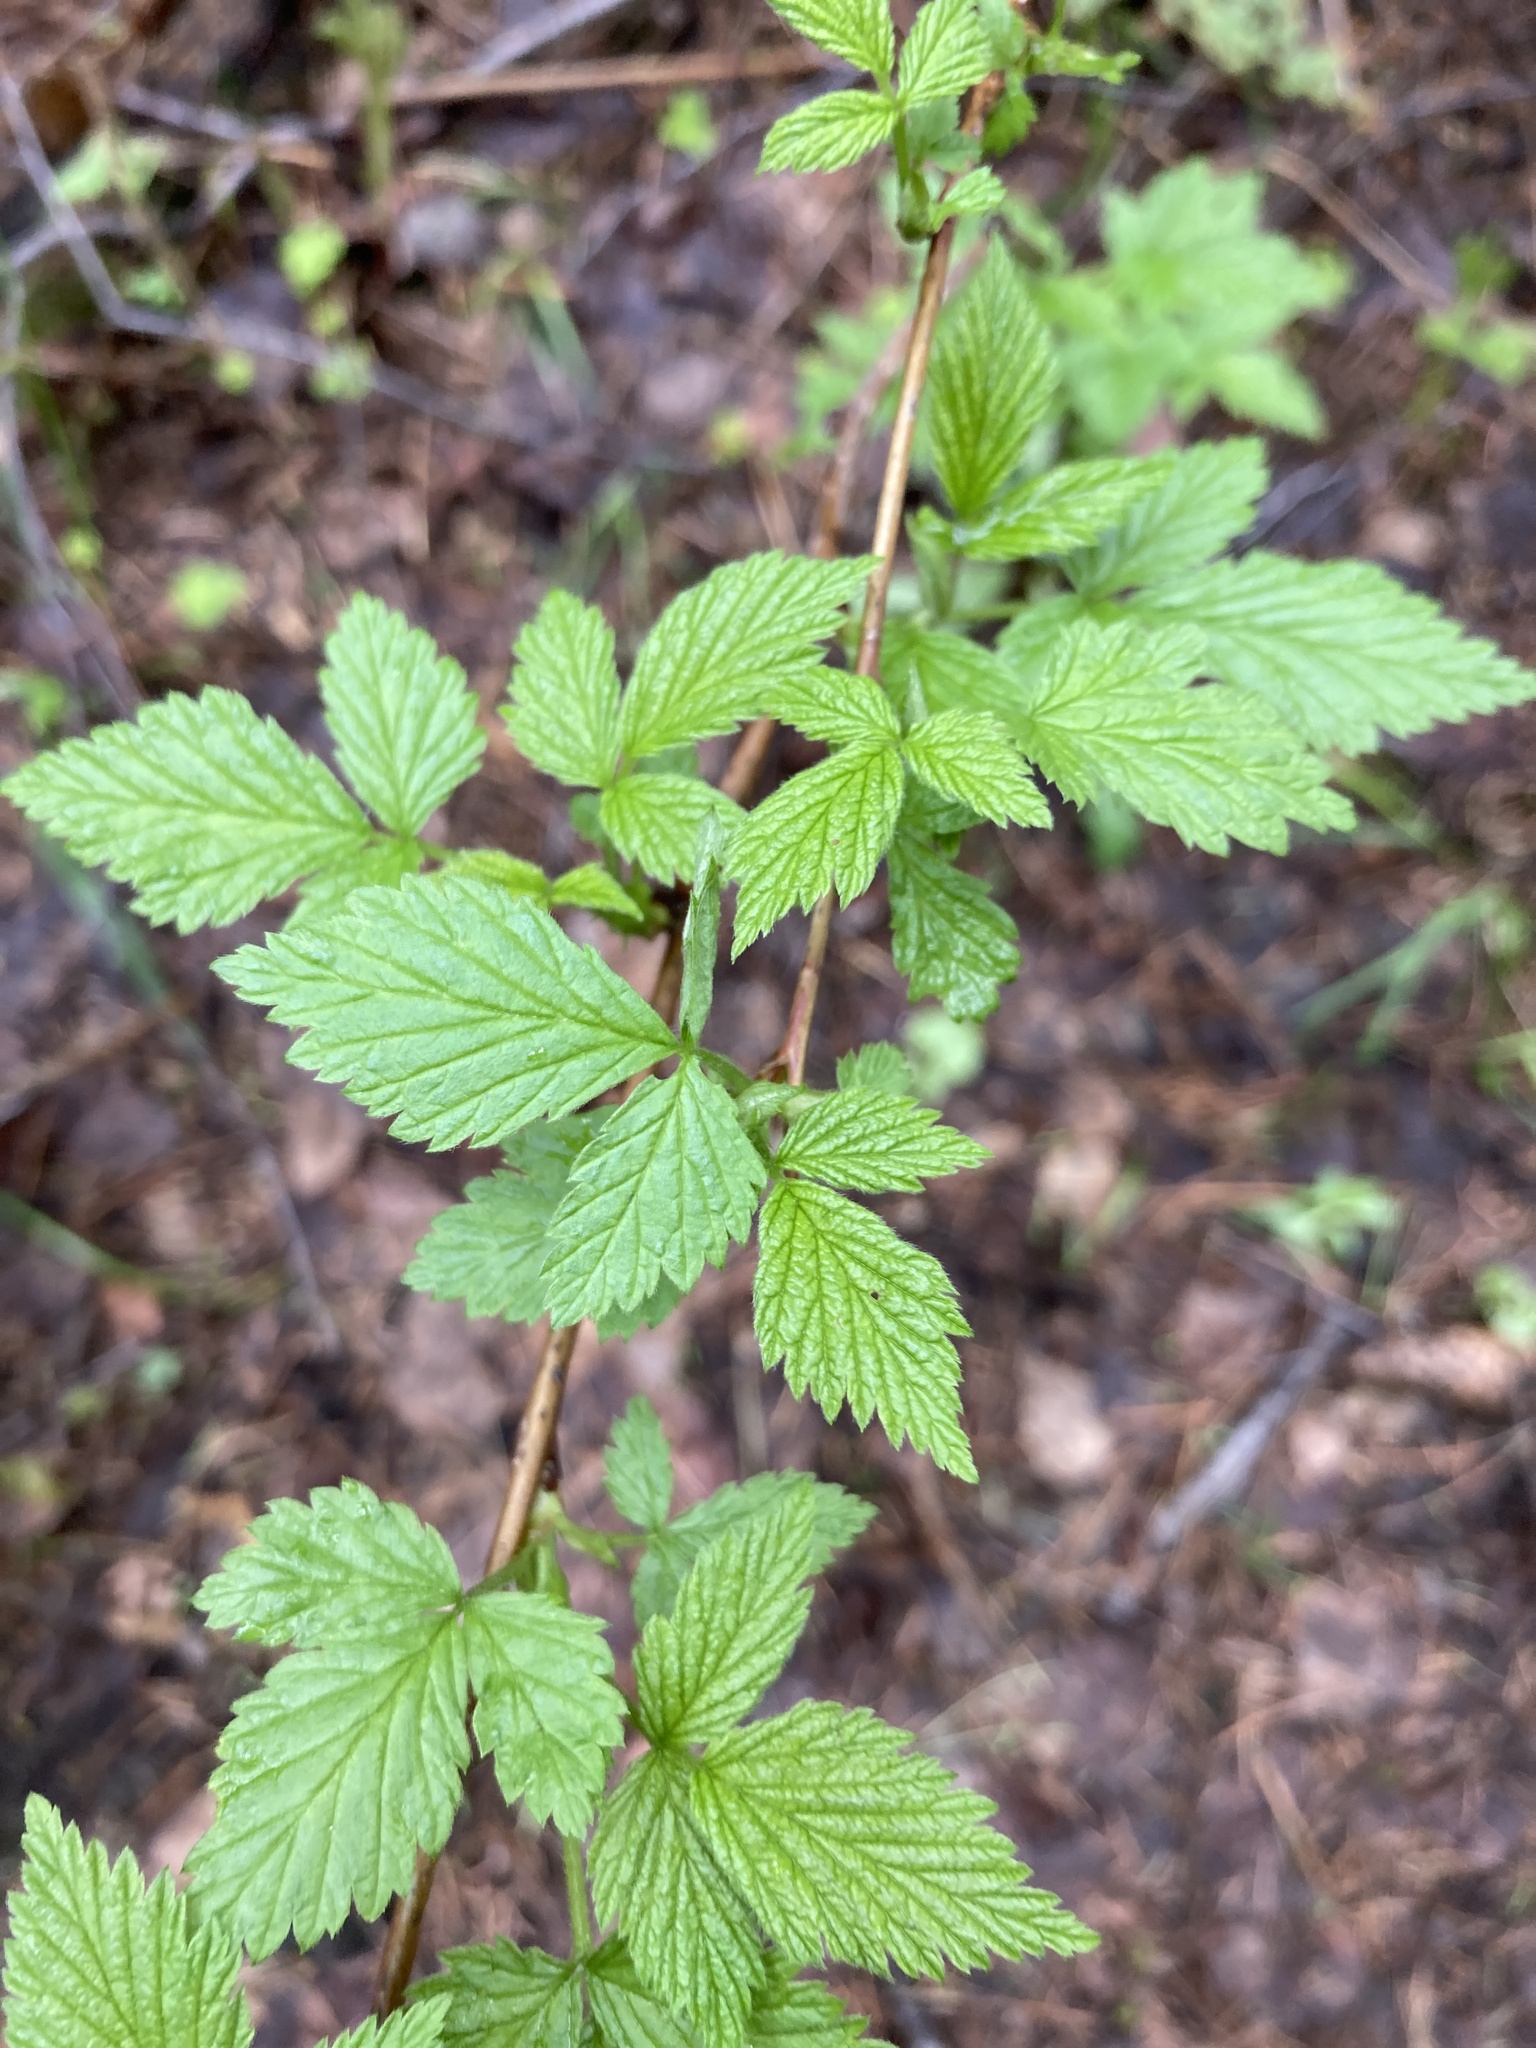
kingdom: Plantae
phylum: Tracheophyta
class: Magnoliopsida
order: Rosales
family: Rosaceae
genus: Rubus
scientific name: Rubus idaeus
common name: Raspberry
